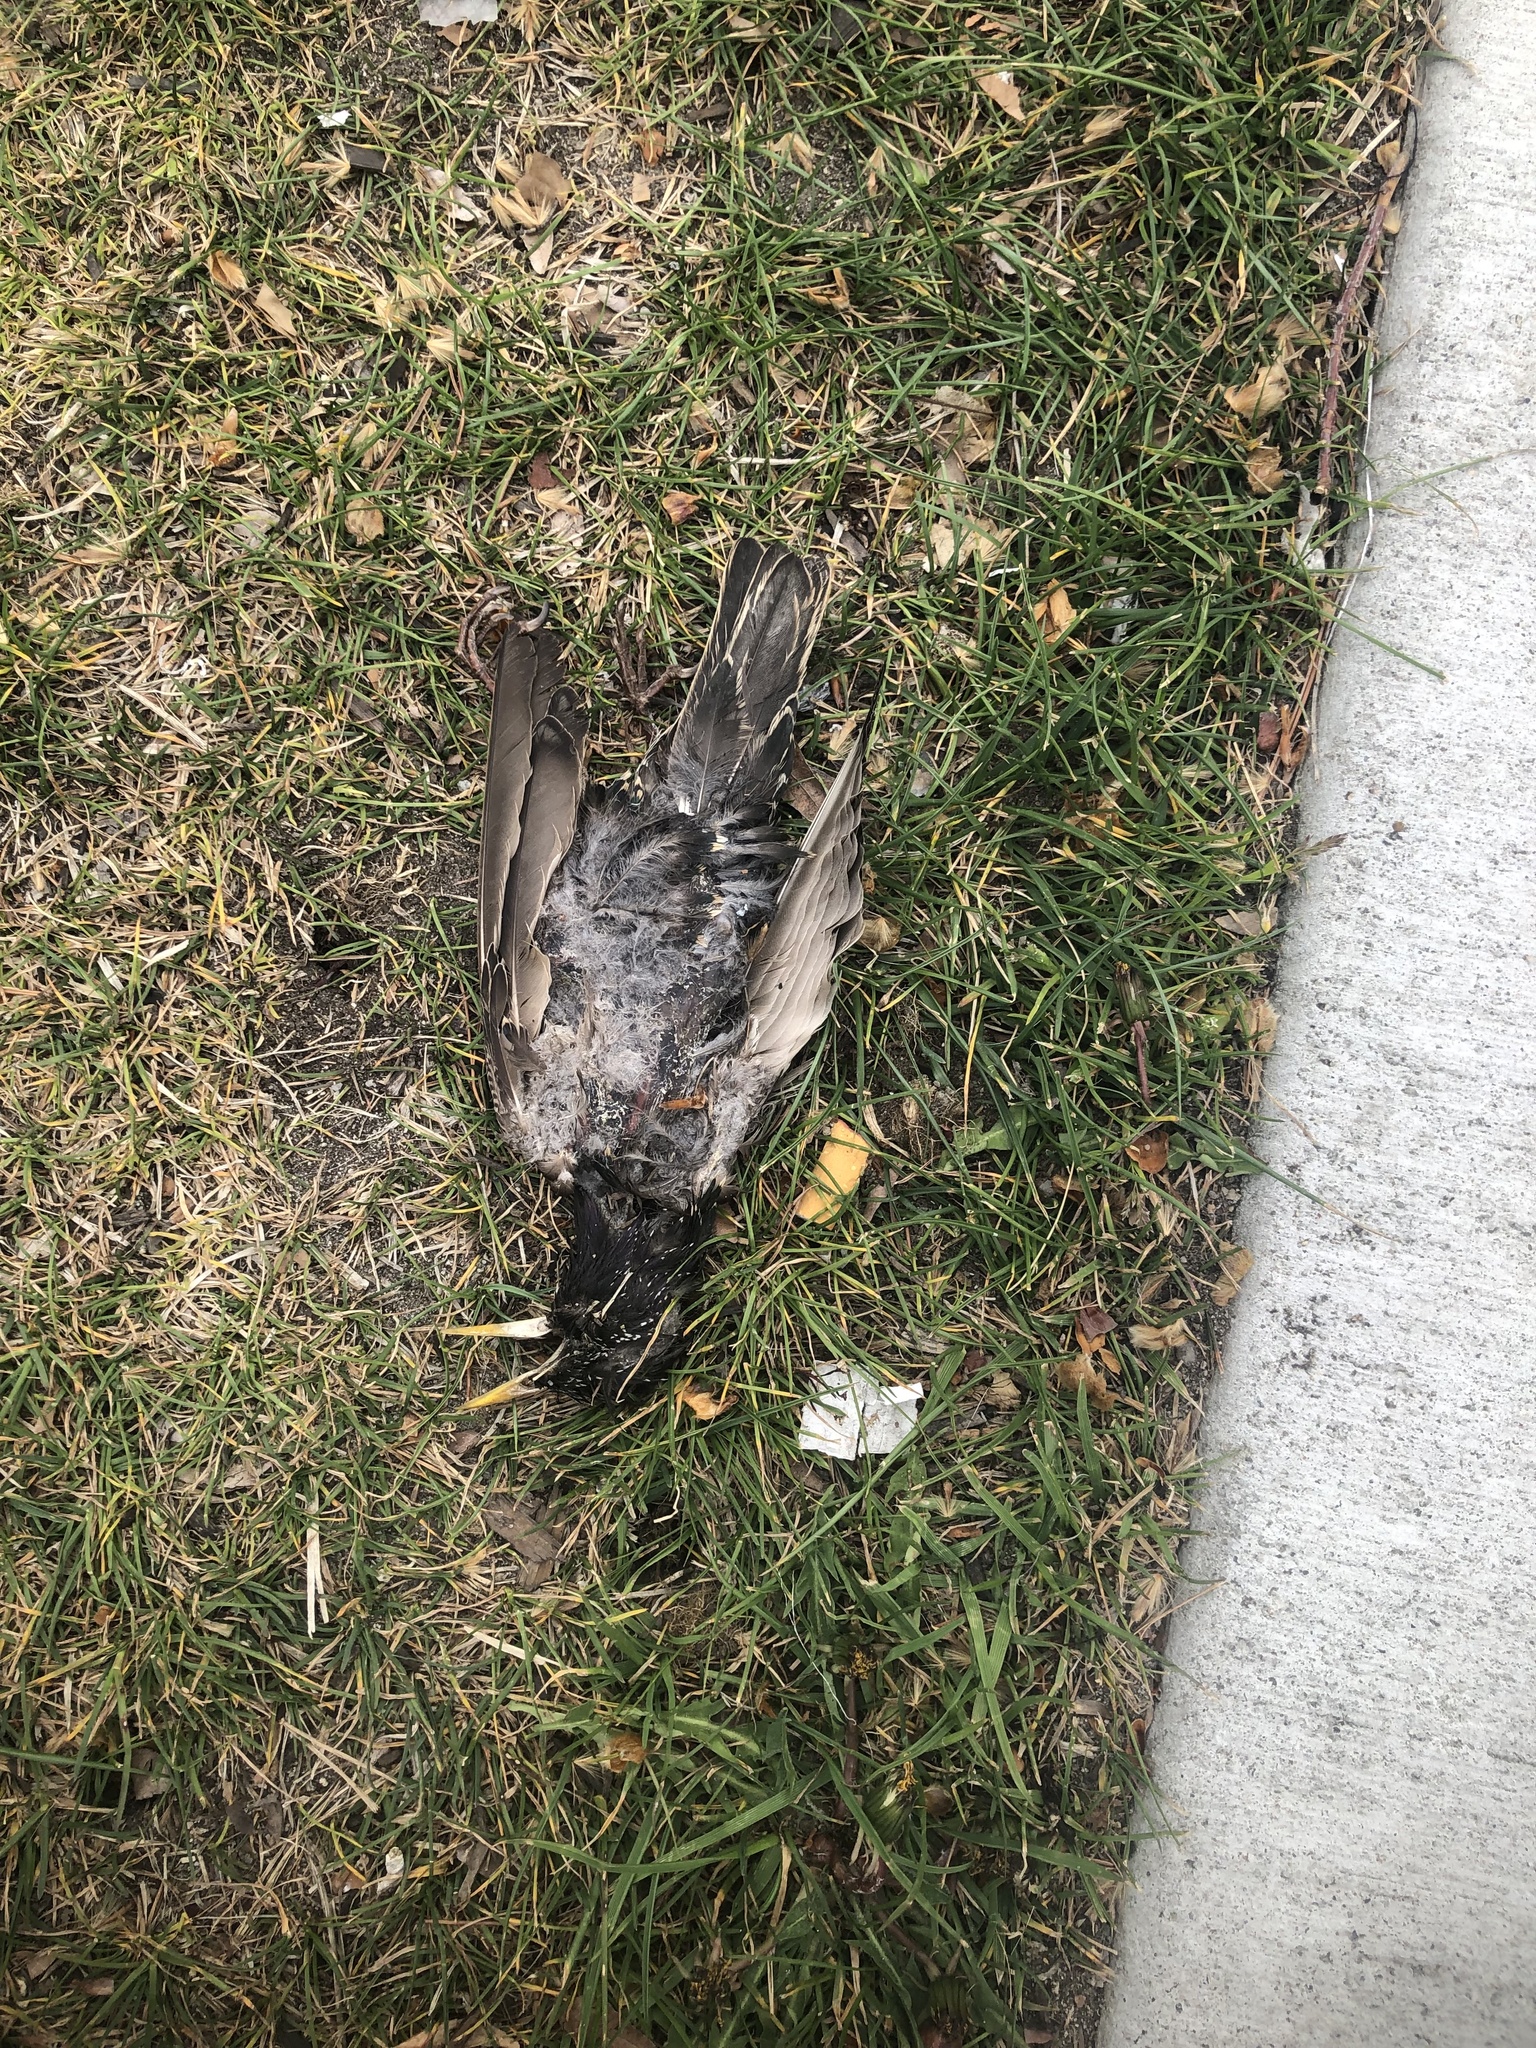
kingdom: Animalia
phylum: Chordata
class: Aves
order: Passeriformes
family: Sturnidae
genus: Sturnus
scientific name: Sturnus vulgaris
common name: Common starling
